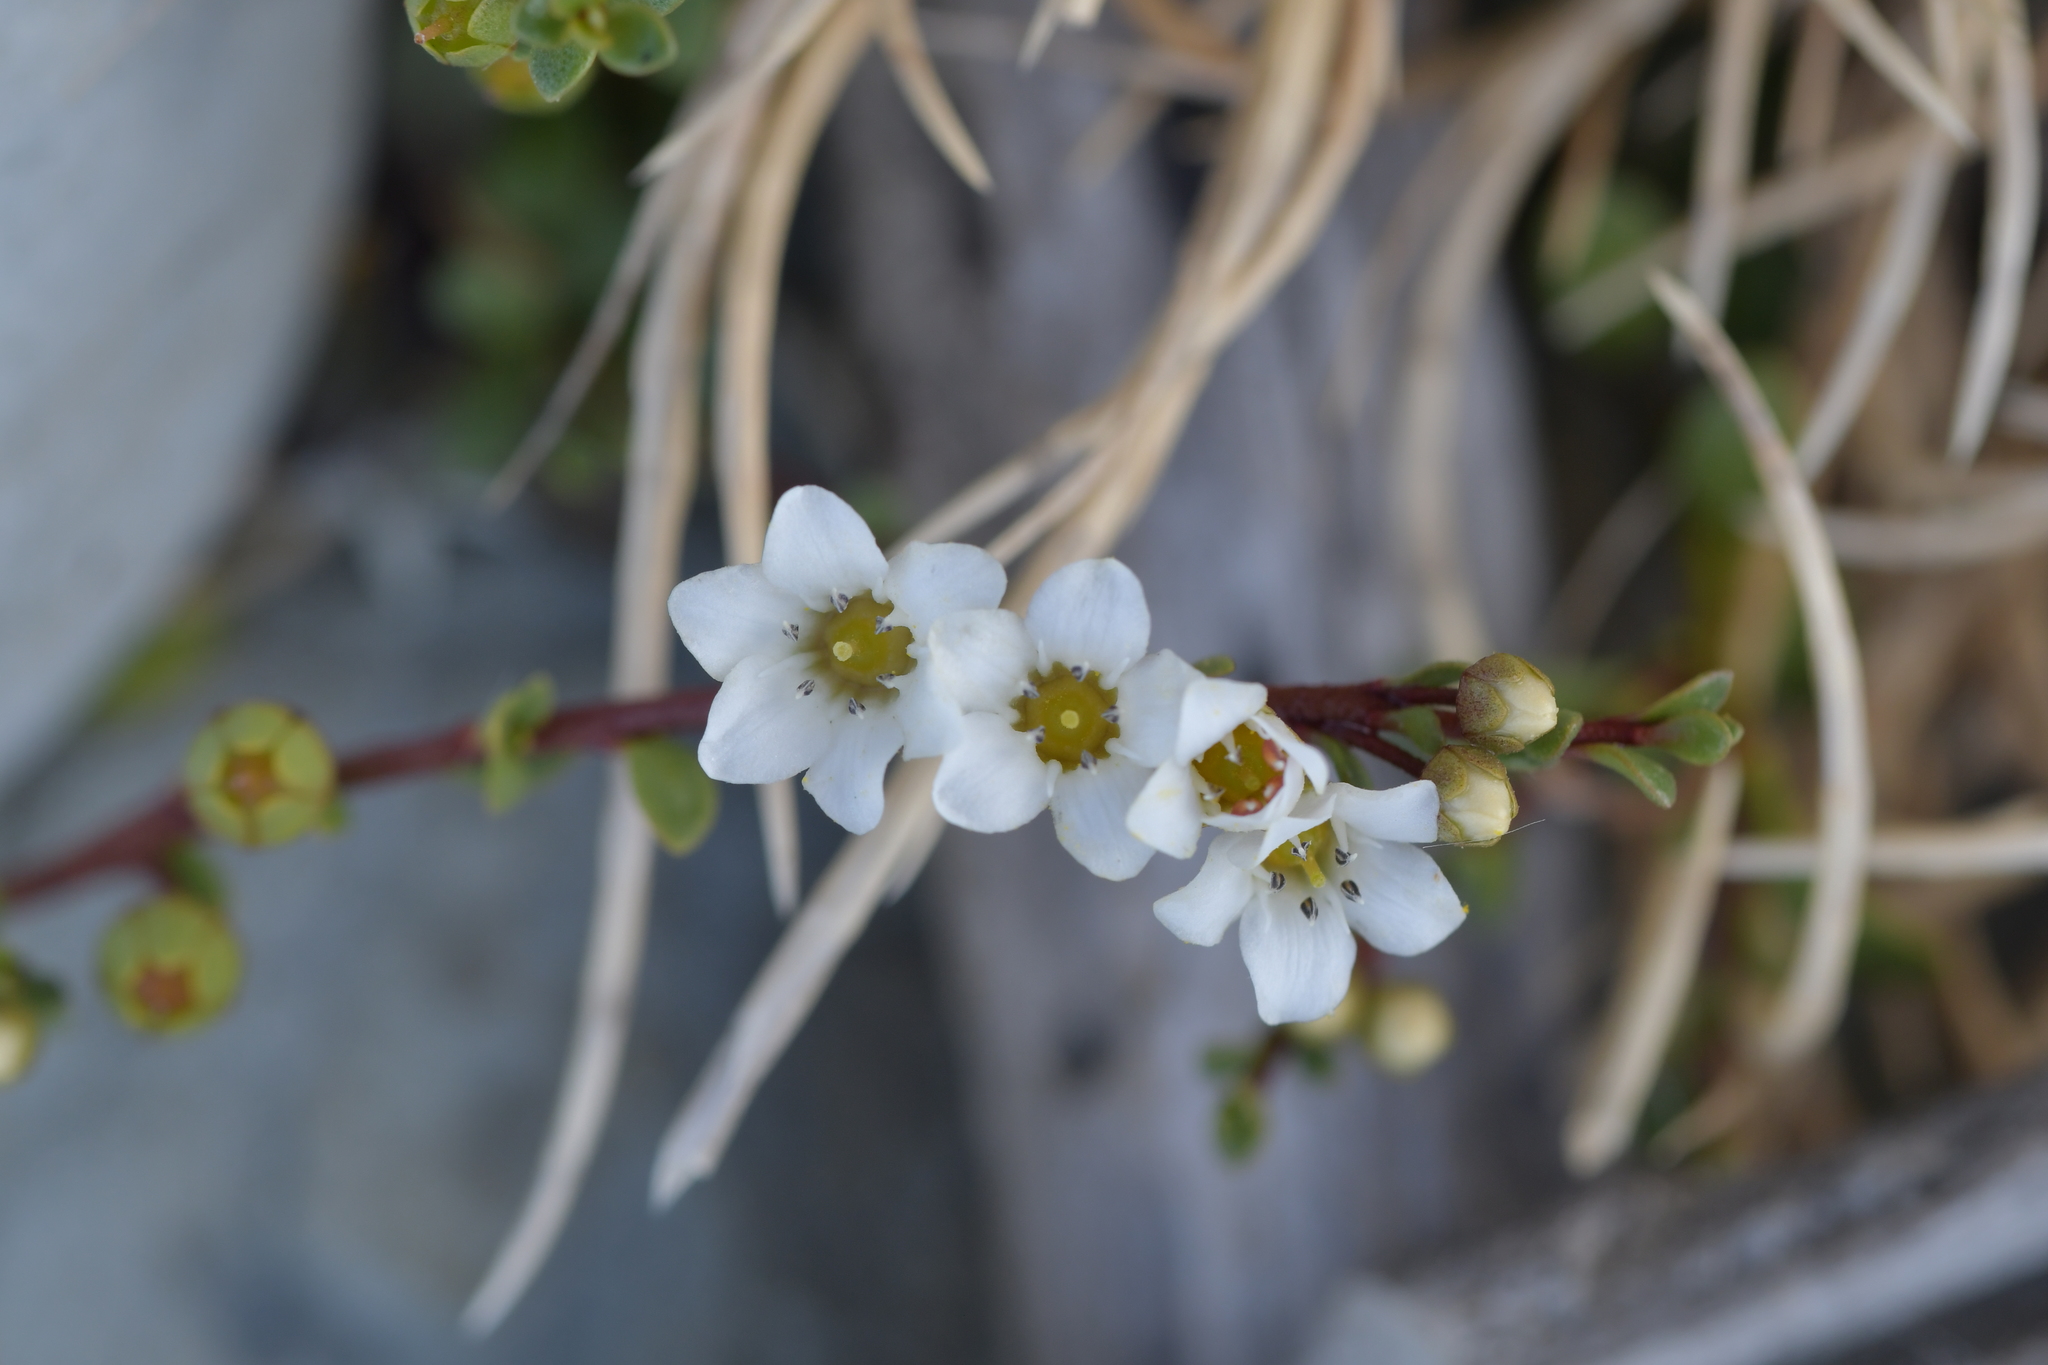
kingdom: Plantae
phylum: Tracheophyta
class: Magnoliopsida
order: Ericales
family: Primulaceae
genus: Samolus
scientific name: Samolus repens
